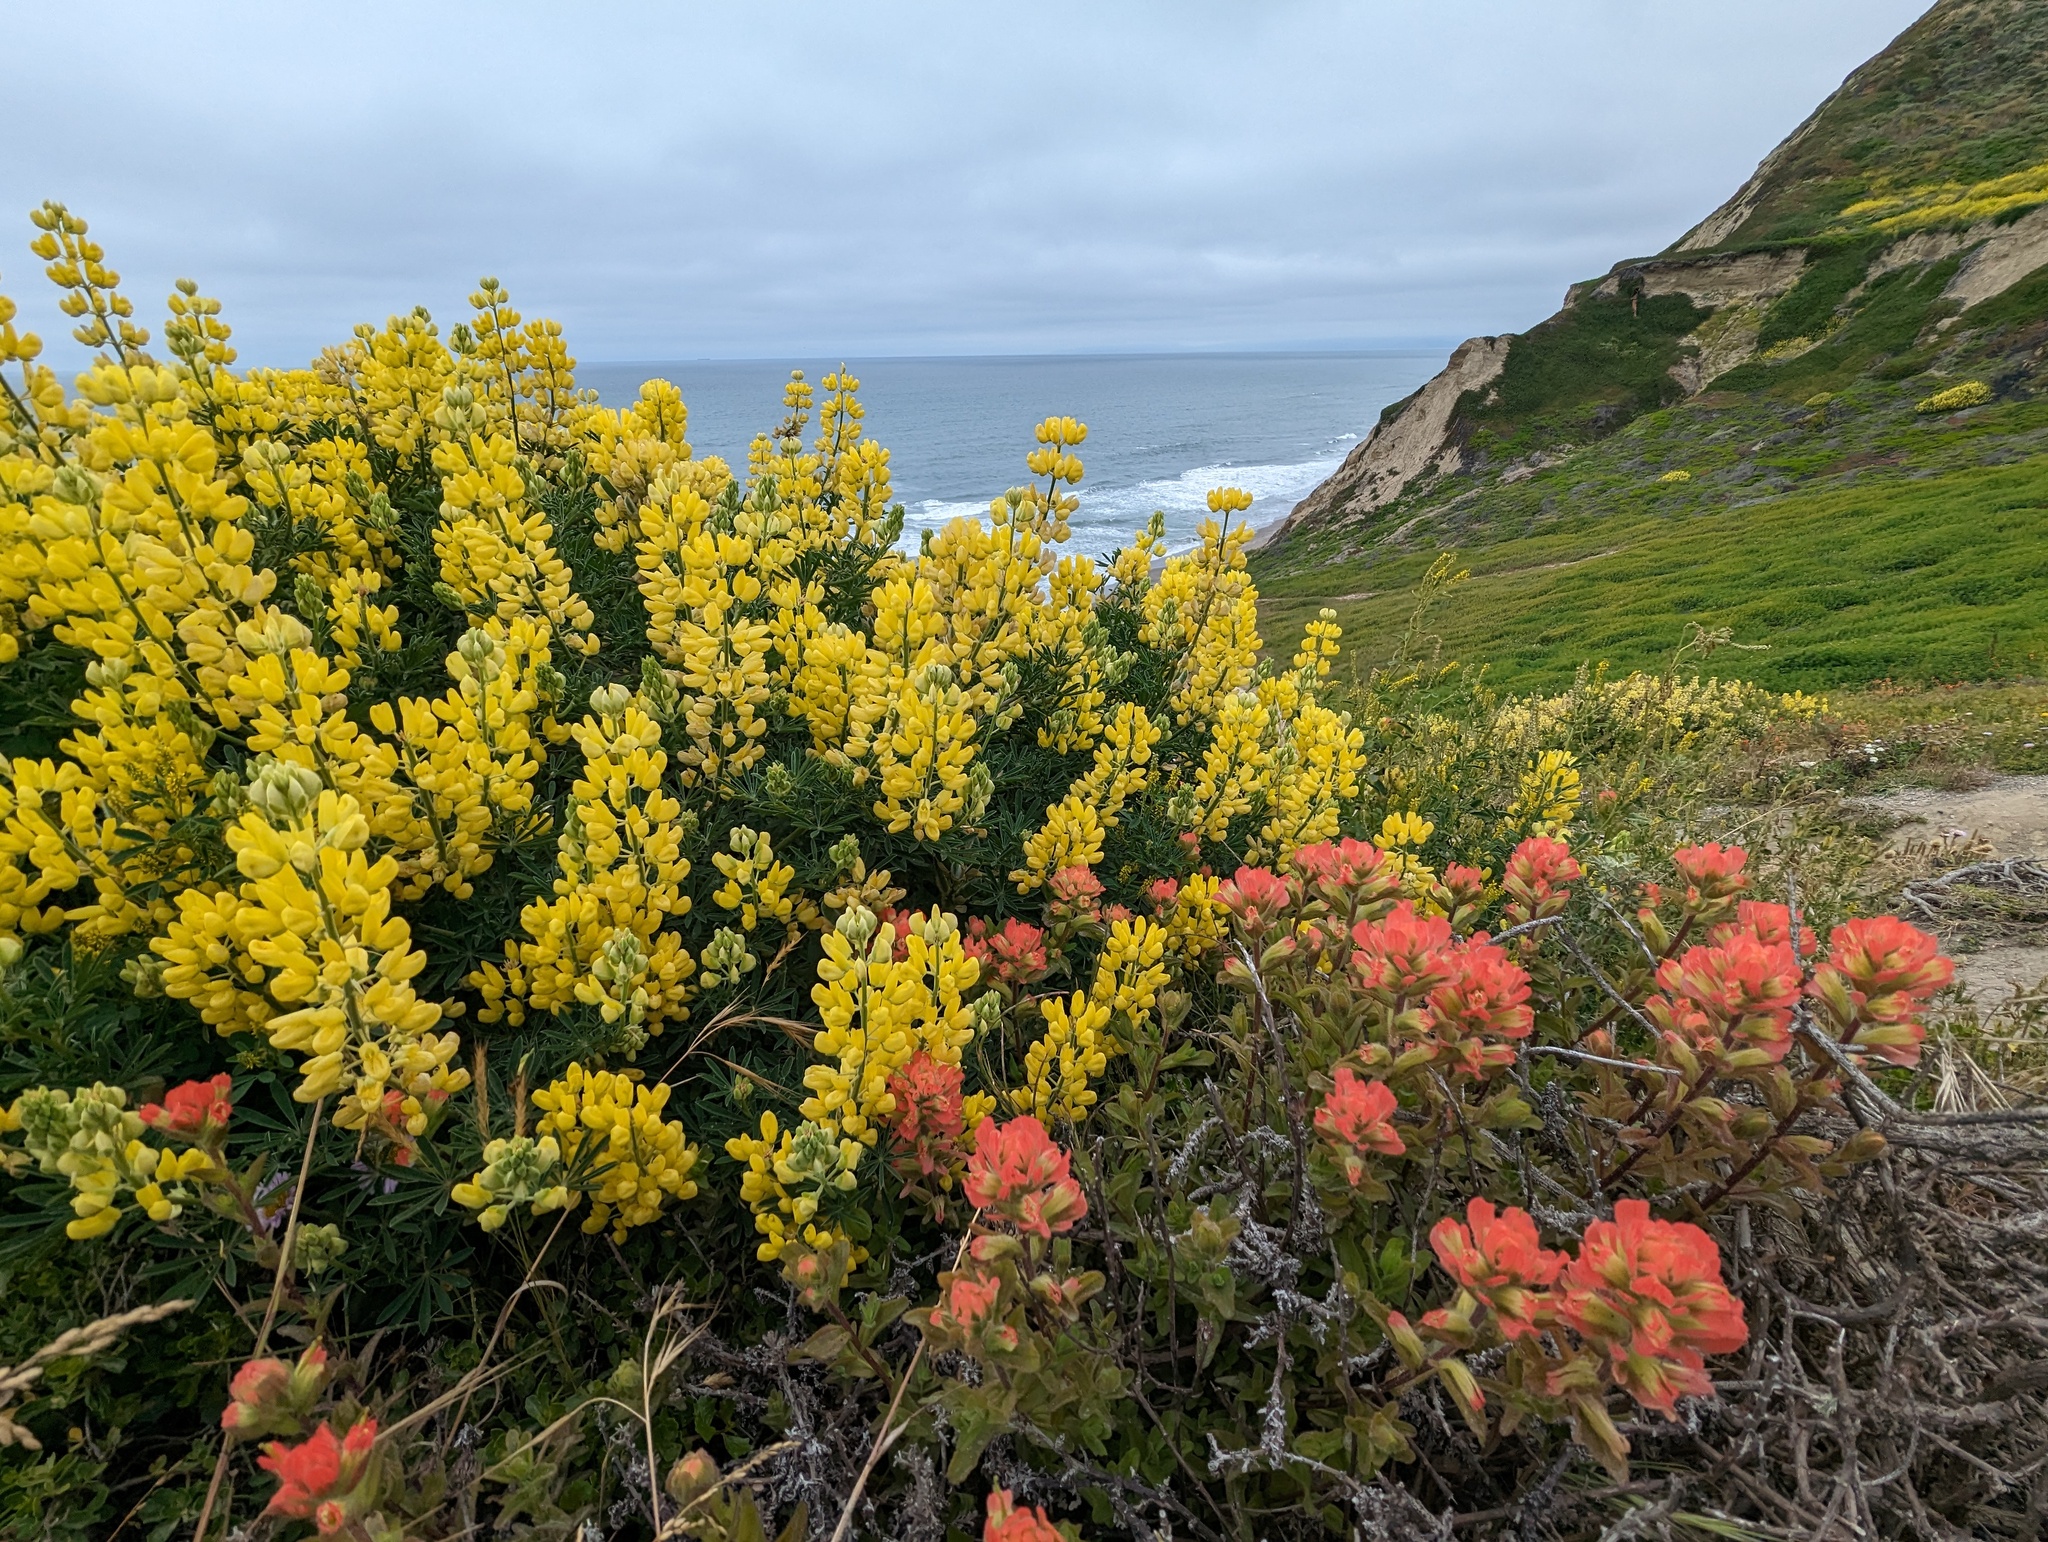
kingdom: Plantae
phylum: Tracheophyta
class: Magnoliopsida
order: Fabales
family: Fabaceae
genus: Lupinus
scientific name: Lupinus arboreus
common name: Yellow bush lupine
